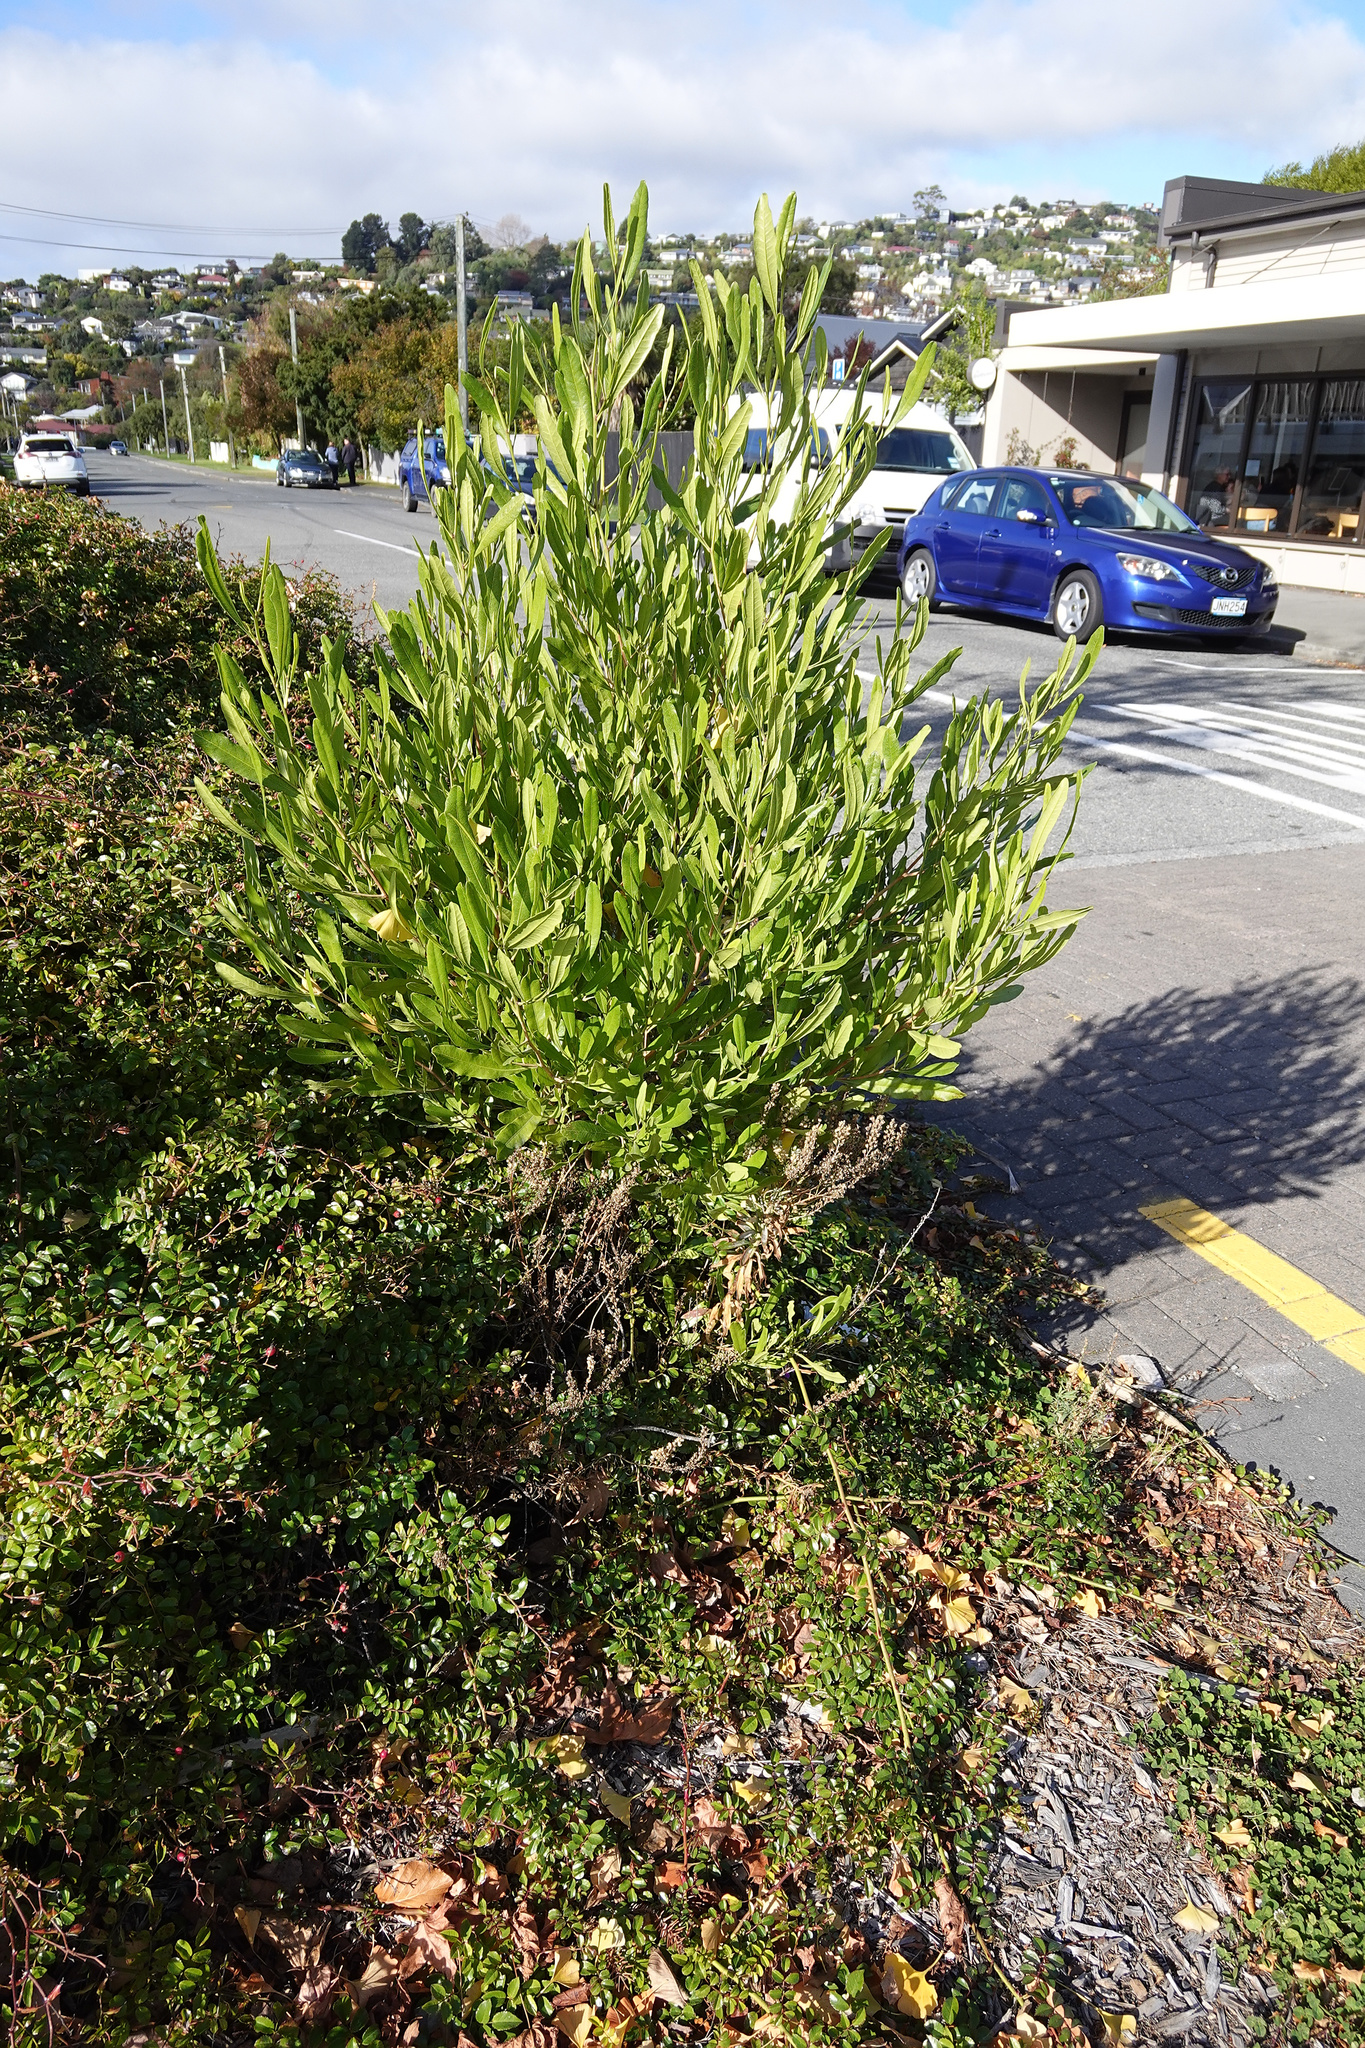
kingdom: Plantae
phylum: Tracheophyta
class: Magnoliopsida
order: Sapindales
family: Sapindaceae
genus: Dodonaea
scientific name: Dodonaea viscosa
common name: Hopbush
